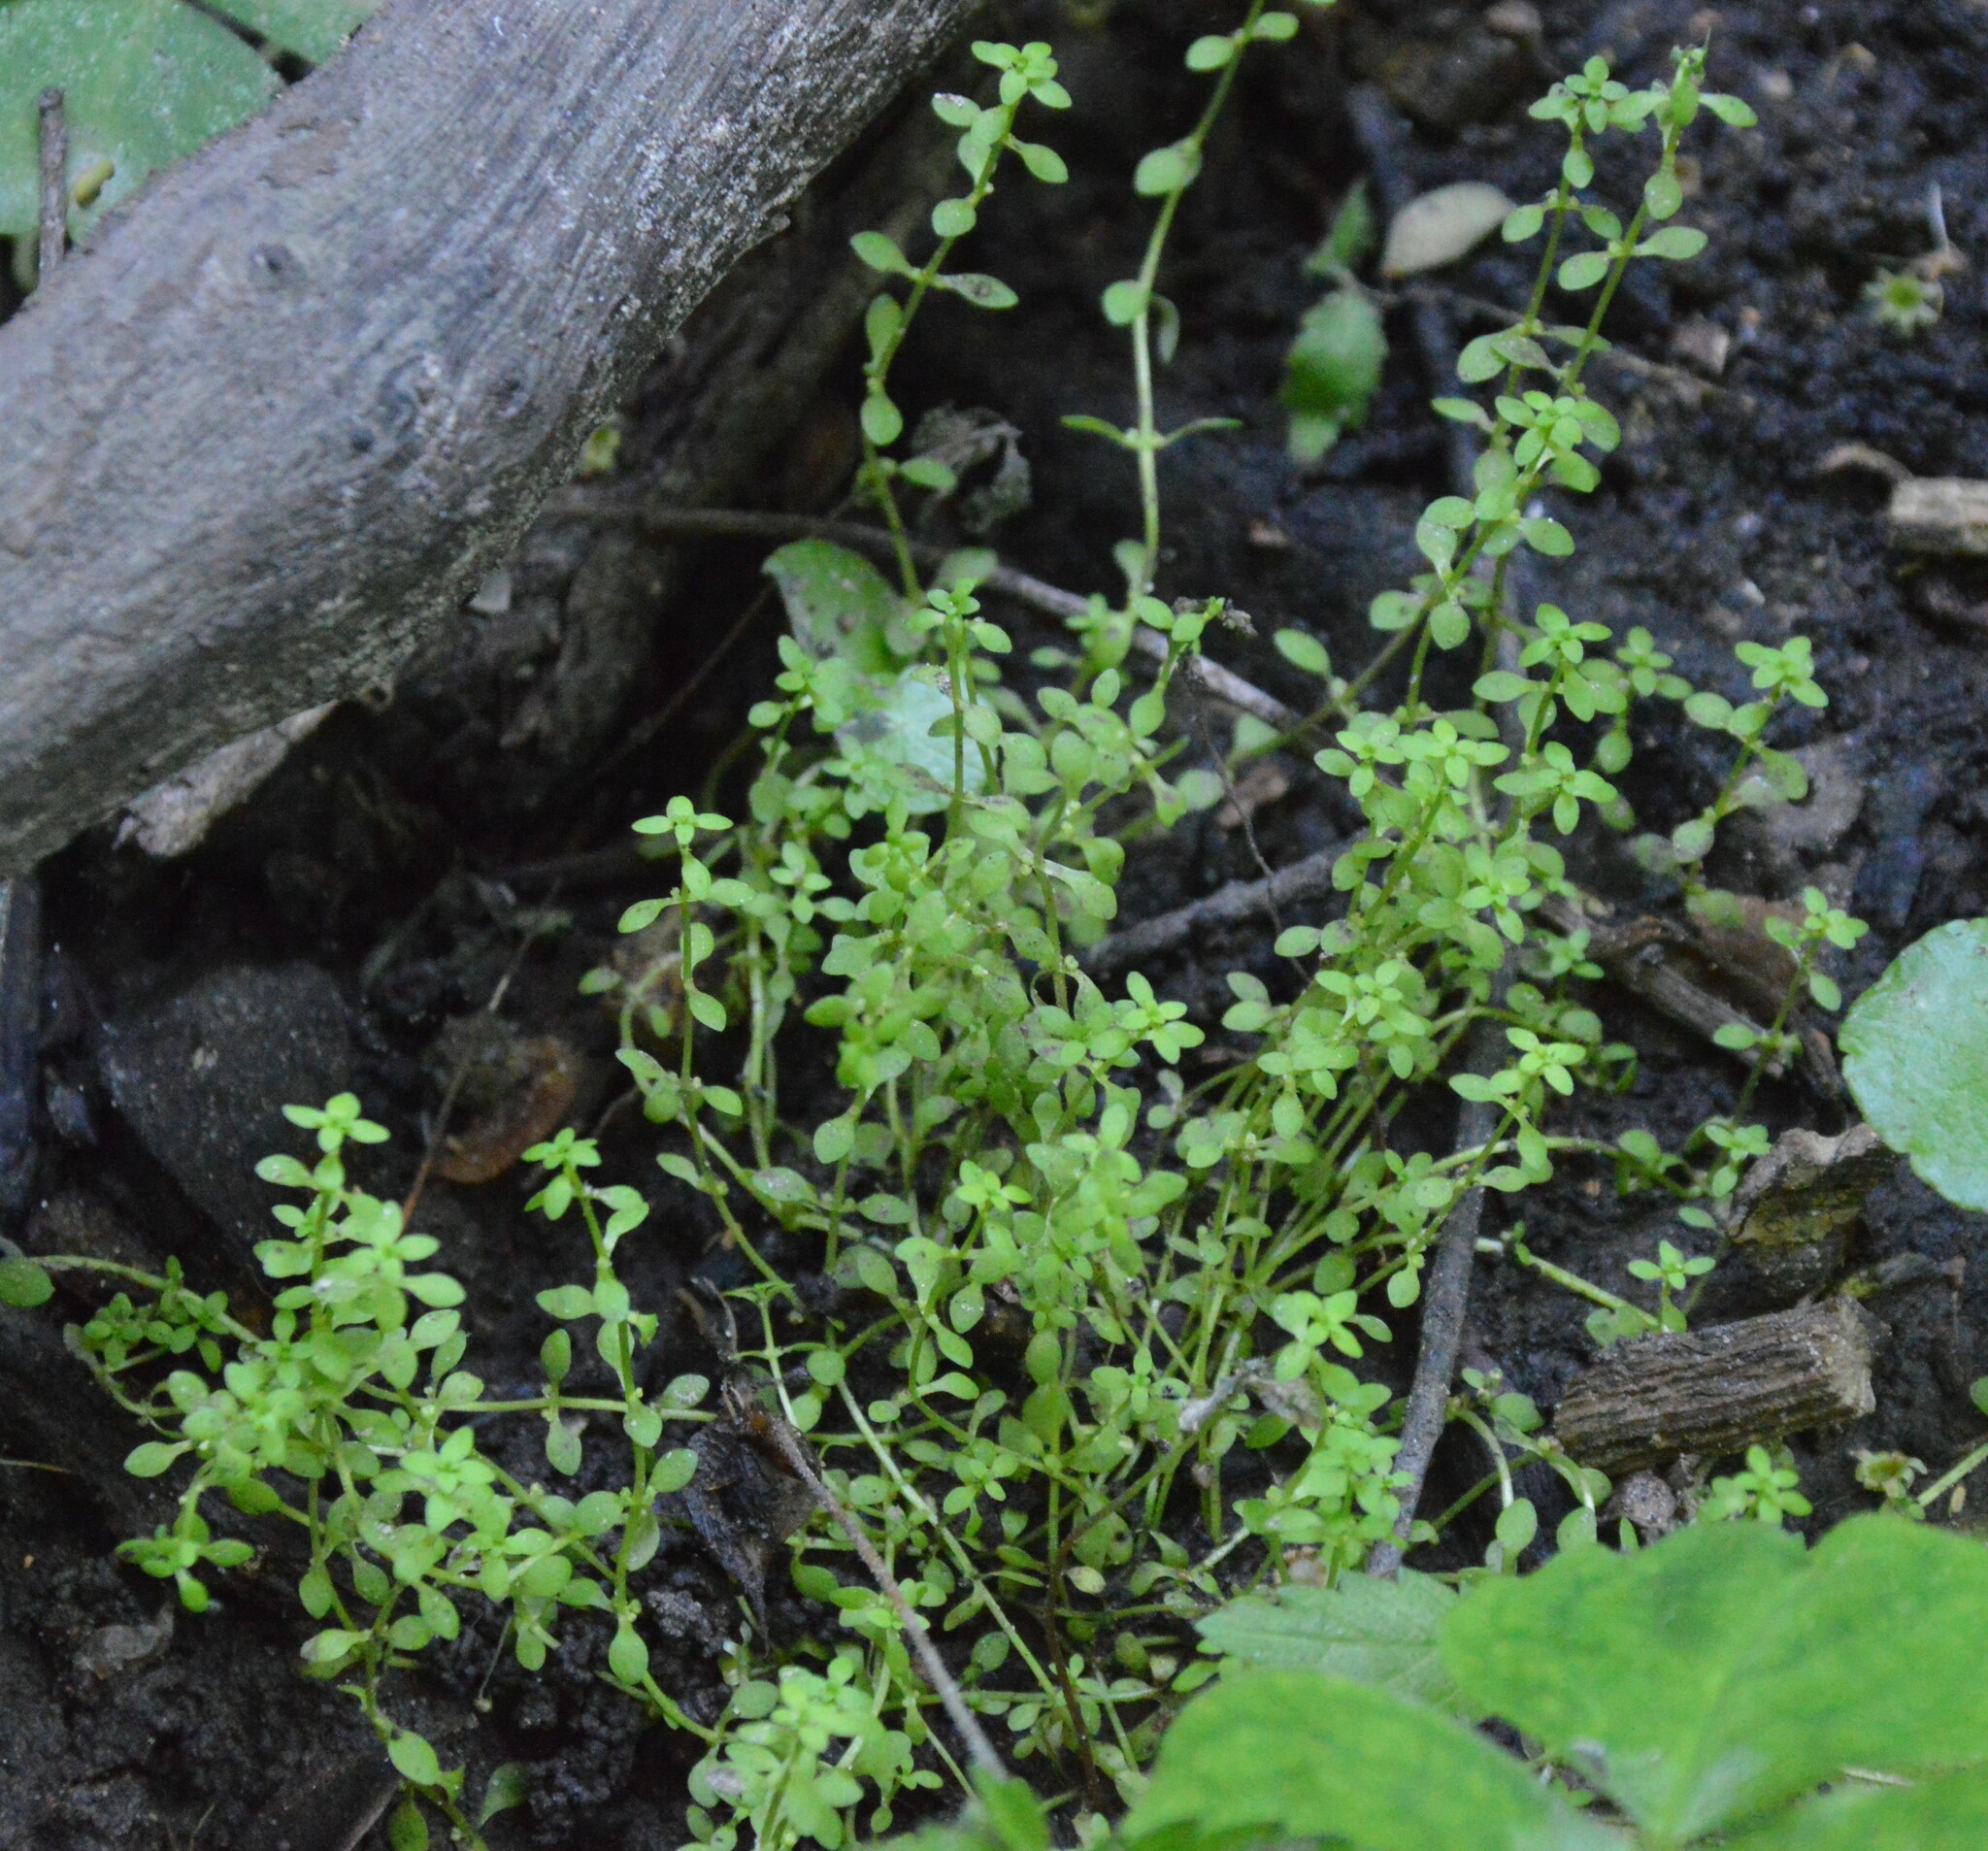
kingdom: Plantae
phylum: Tracheophyta
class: Magnoliopsida
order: Lamiales
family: Plantaginaceae
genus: Callitriche
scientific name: Callitriche peploides
